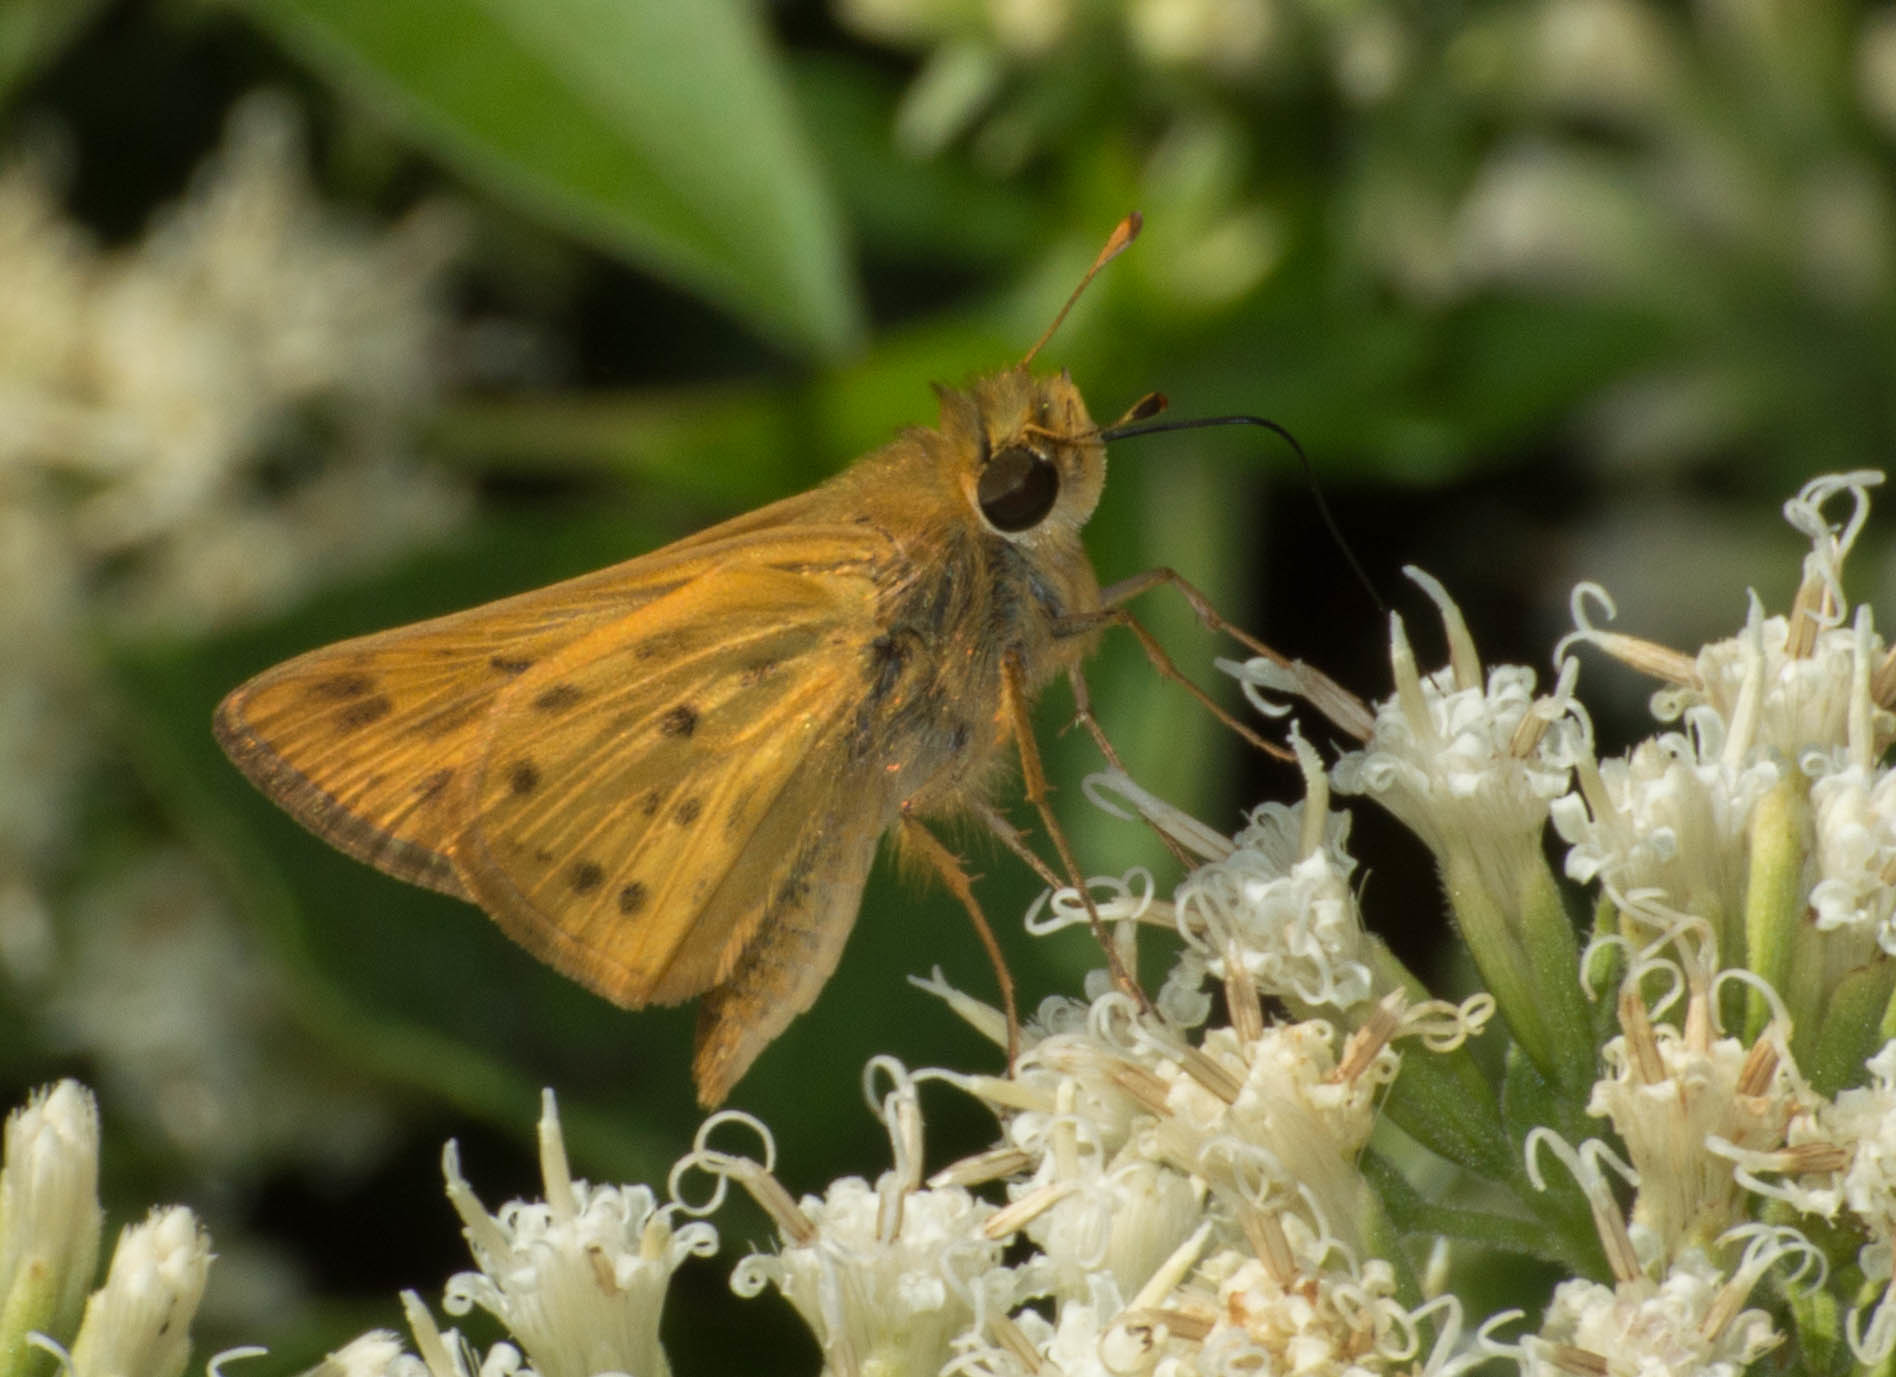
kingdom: Animalia
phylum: Arthropoda
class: Insecta
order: Lepidoptera
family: Hesperiidae
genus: Hylephila
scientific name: Hylephila phyleus
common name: Fiery skipper
